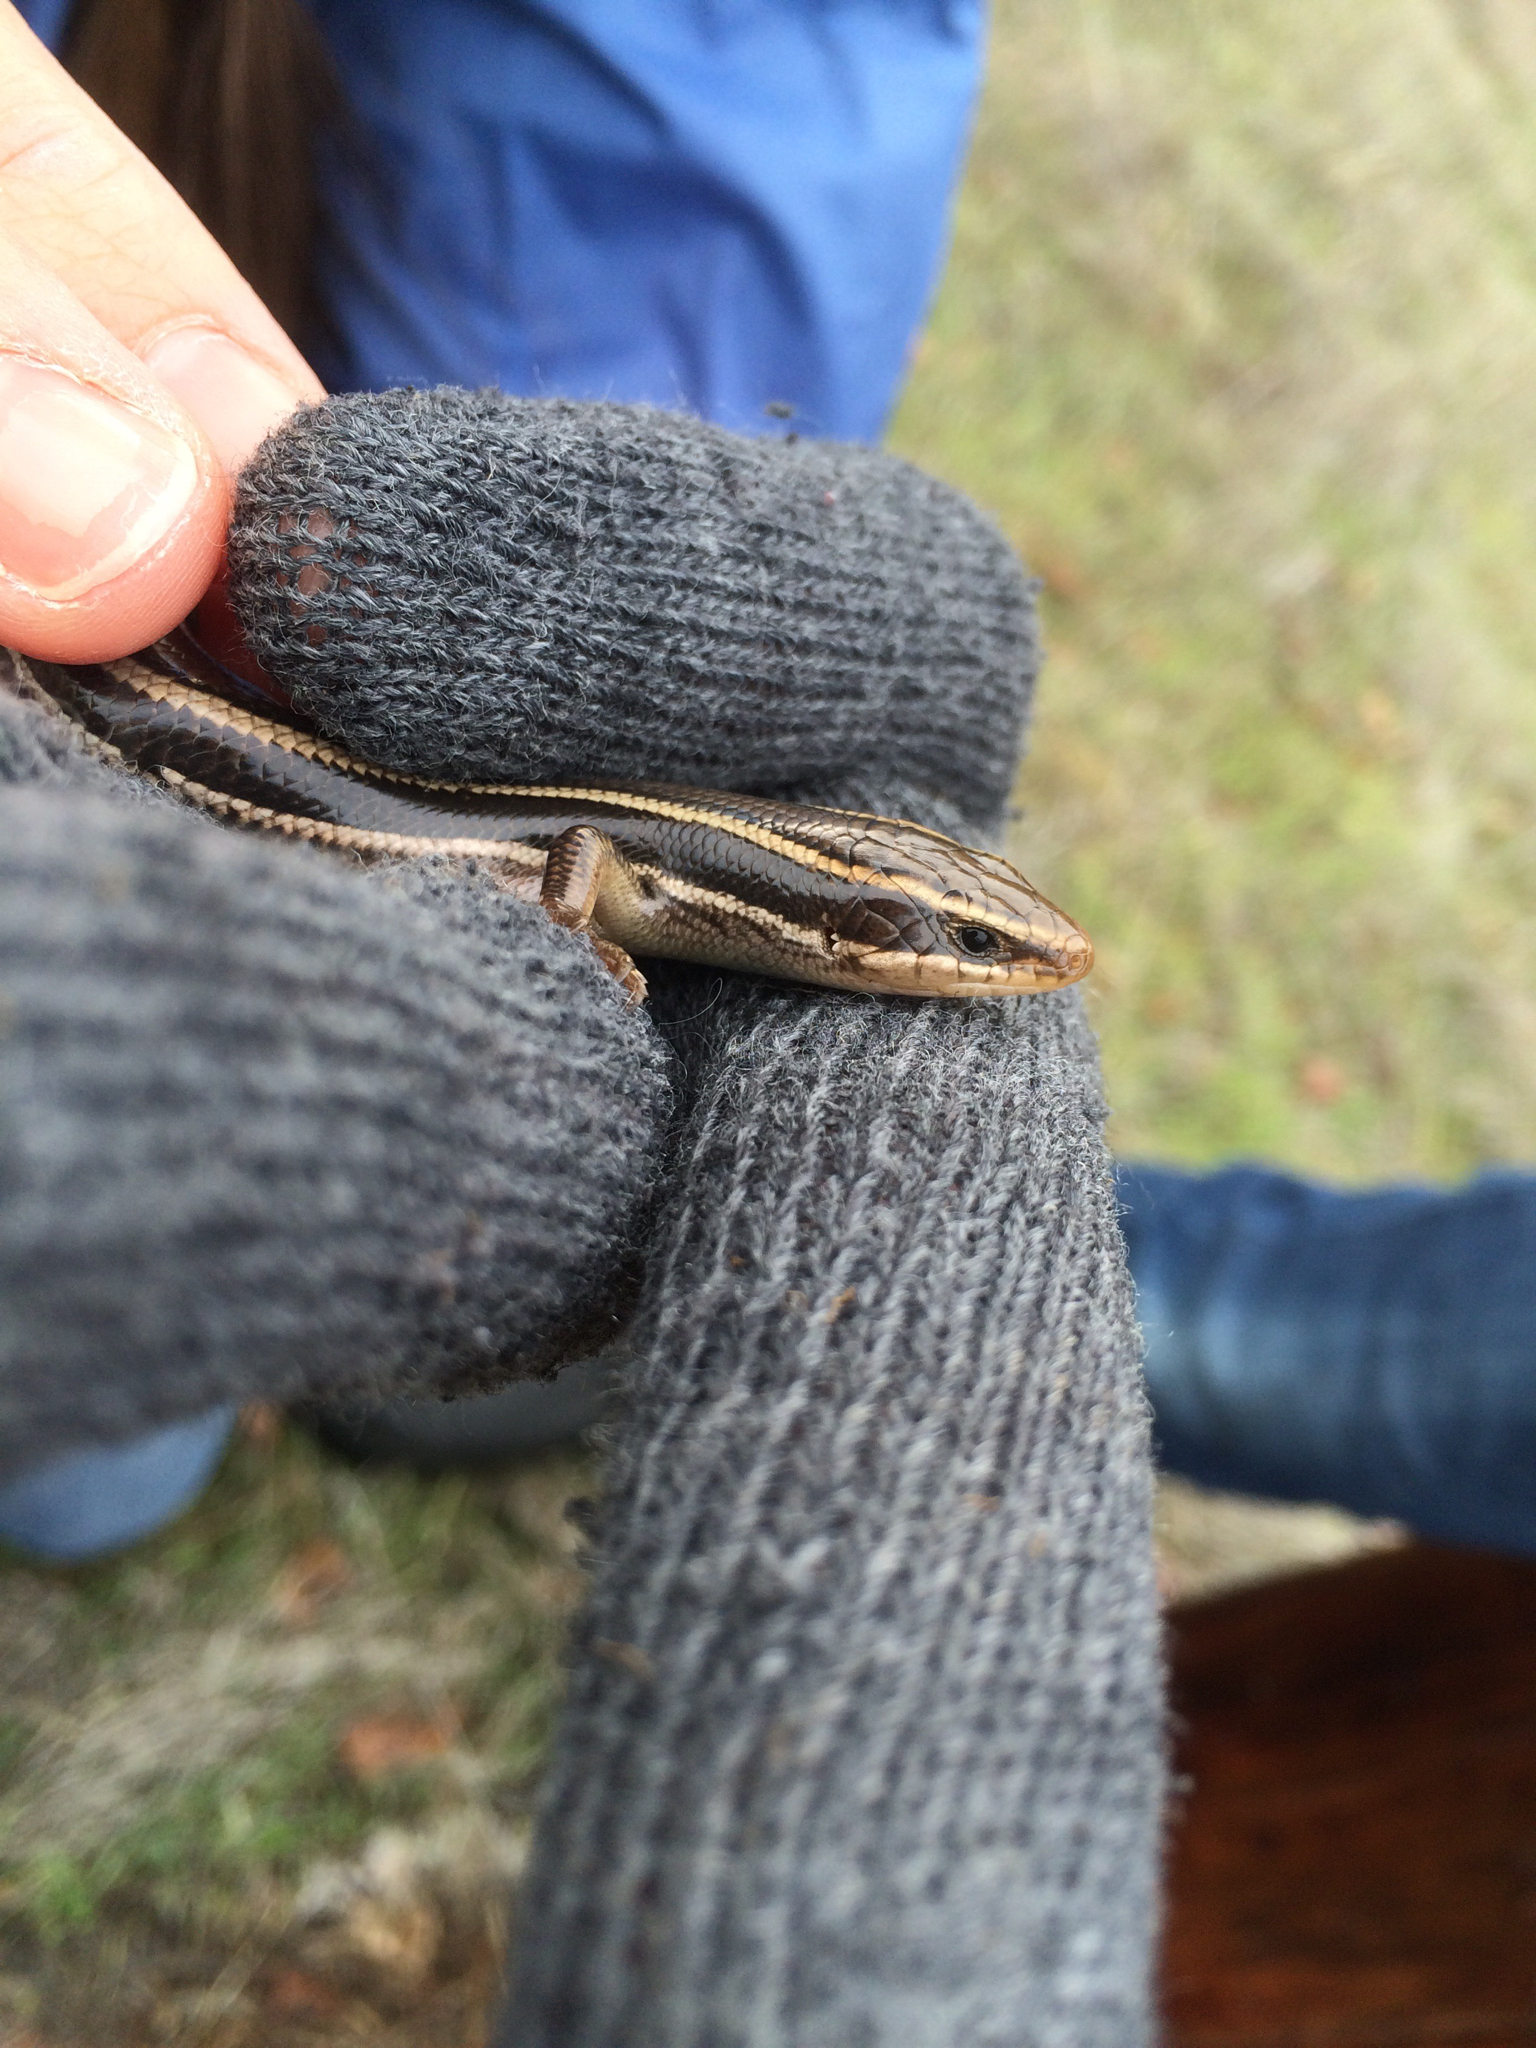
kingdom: Animalia
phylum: Chordata
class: Squamata
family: Scincidae
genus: Plestiodon
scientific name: Plestiodon skiltonianus
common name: Coronado island skink [interparietalis]
